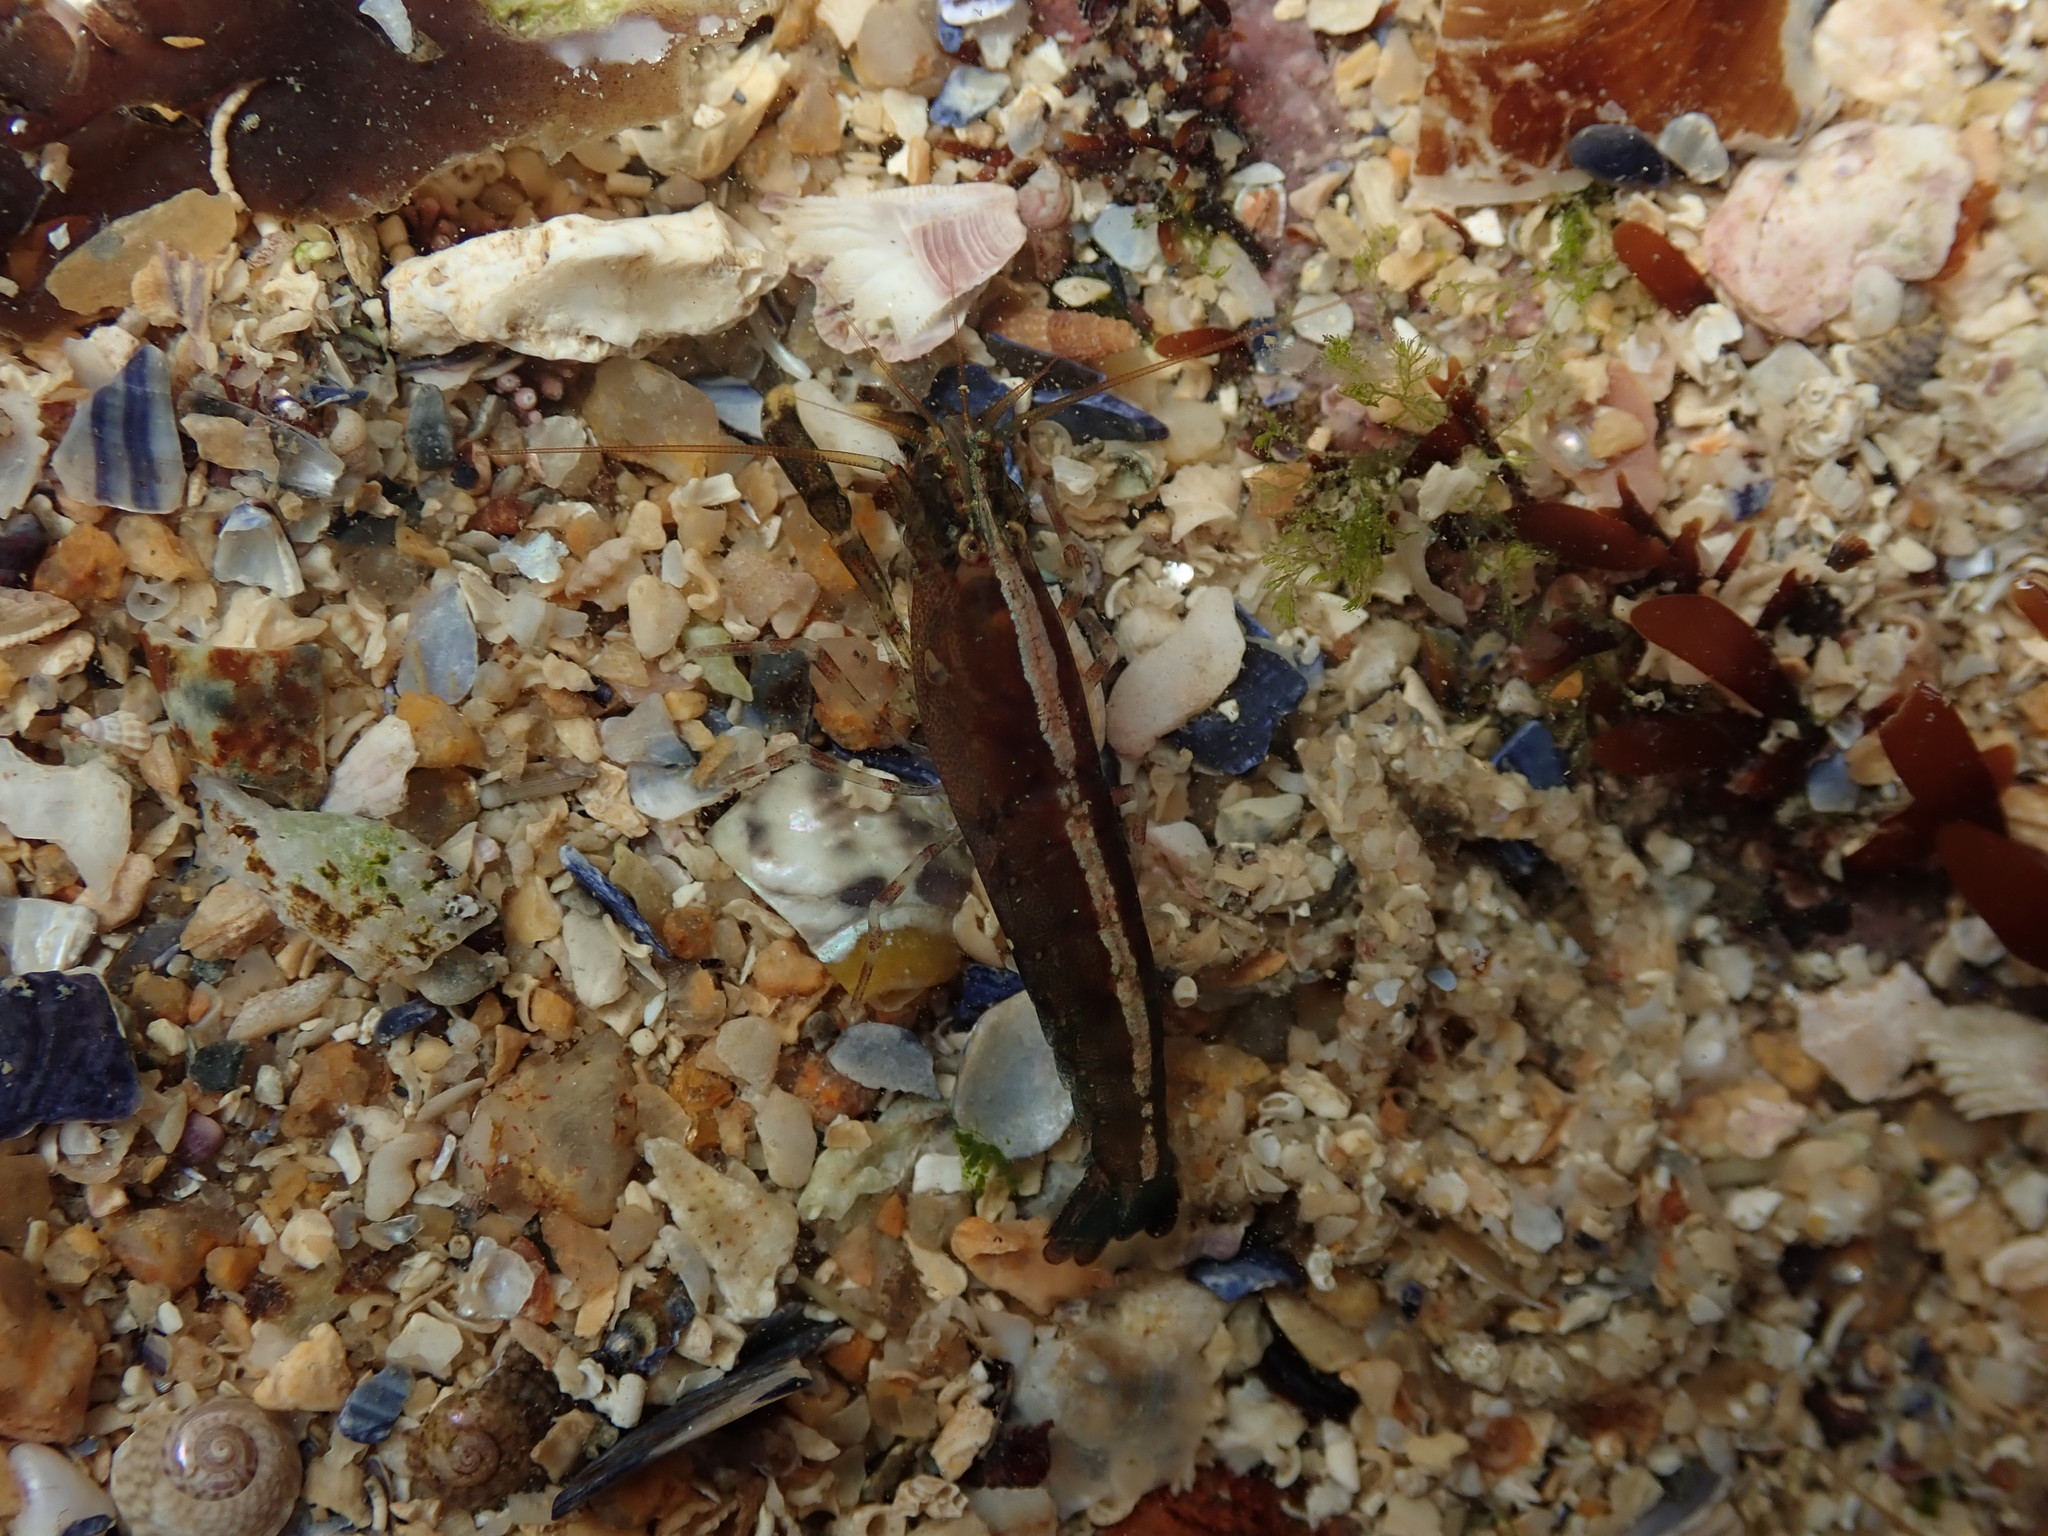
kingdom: Animalia
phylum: Arthropoda
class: Malacostraca
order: Decapoda
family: Alpheidae
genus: Athanas
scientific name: Athanas nitescens
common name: Hooded shrimp
